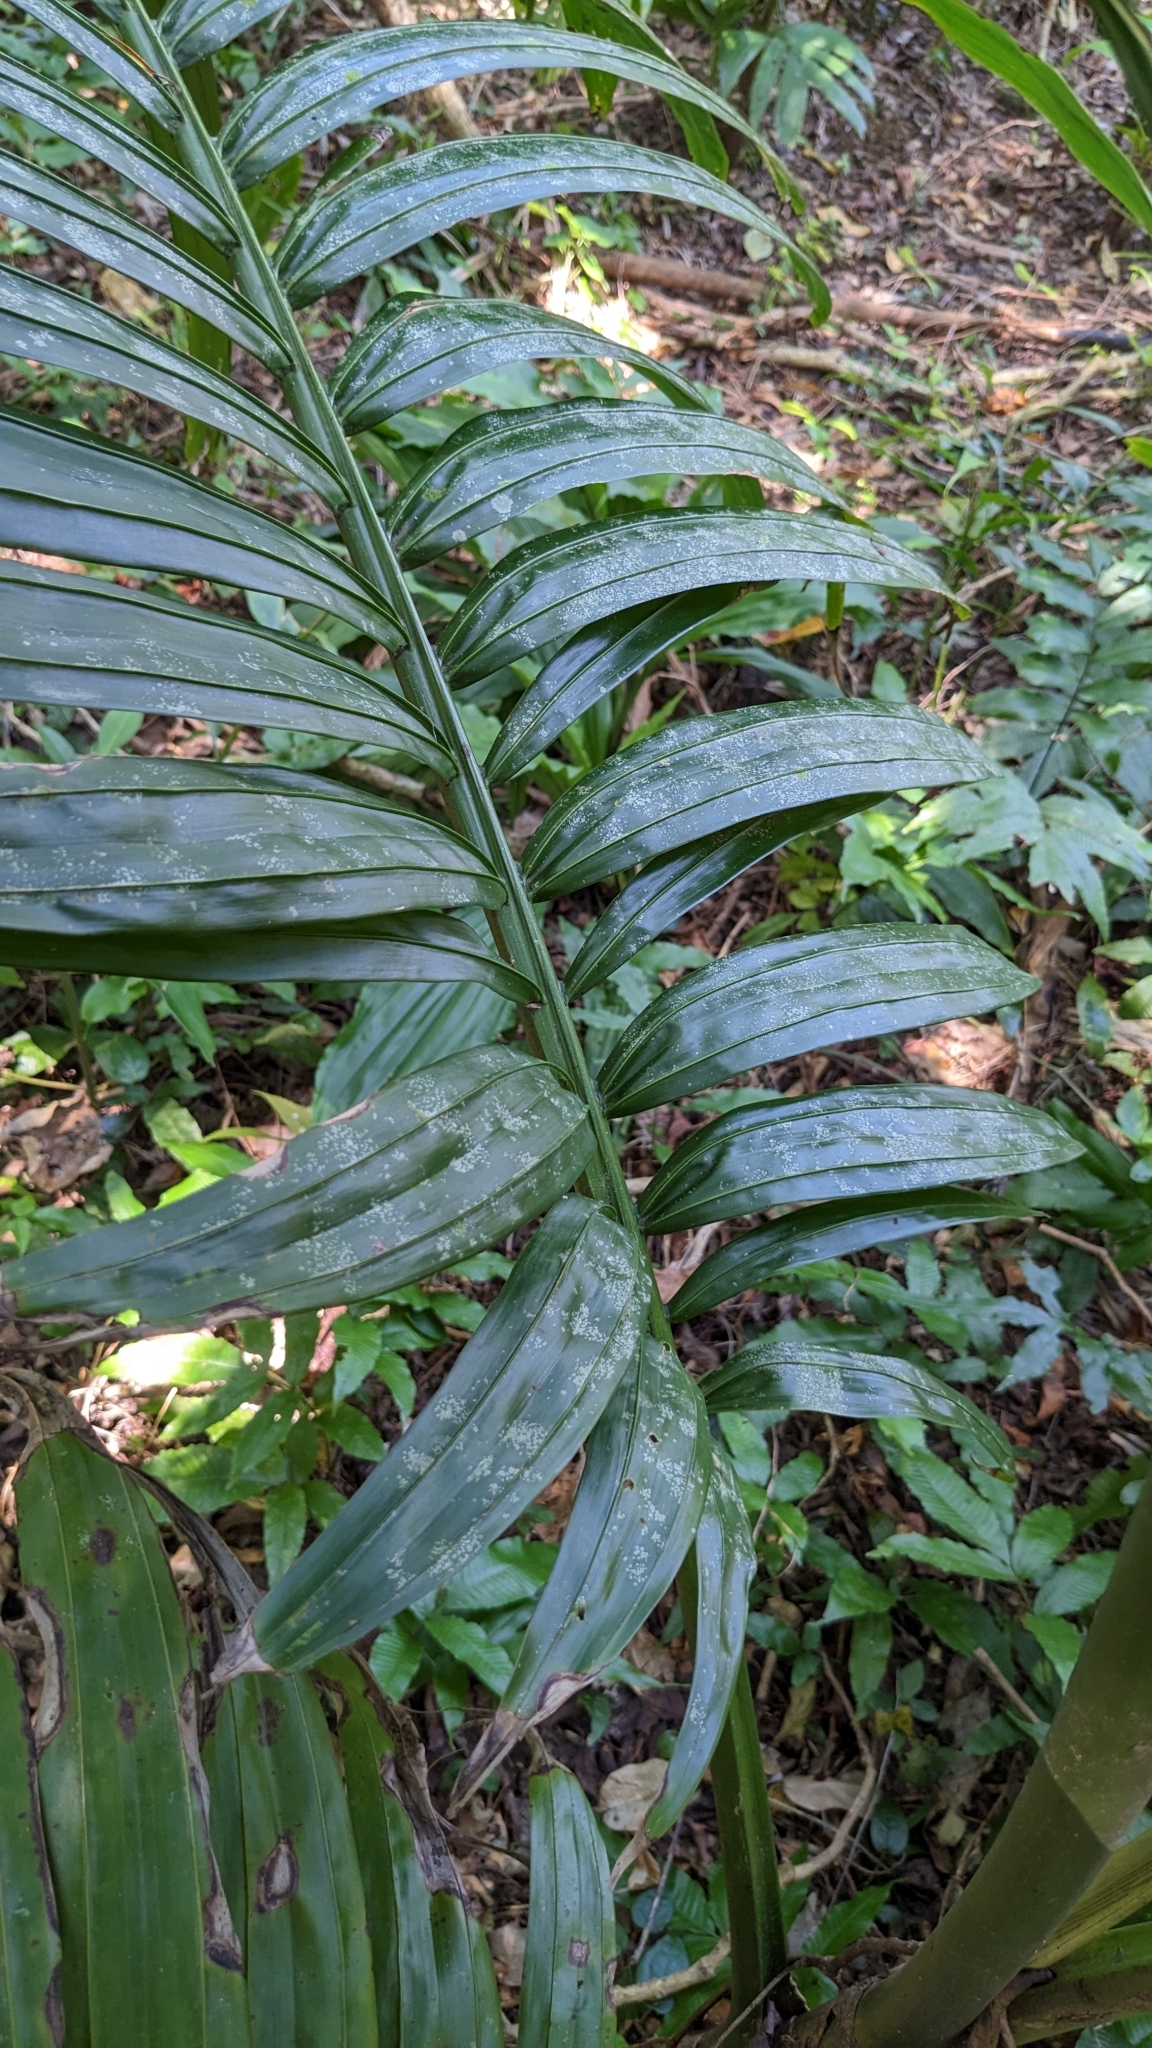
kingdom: Plantae
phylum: Tracheophyta
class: Liliopsida
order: Arecales
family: Arecaceae
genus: Pinanga
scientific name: Pinanga tashiroi
